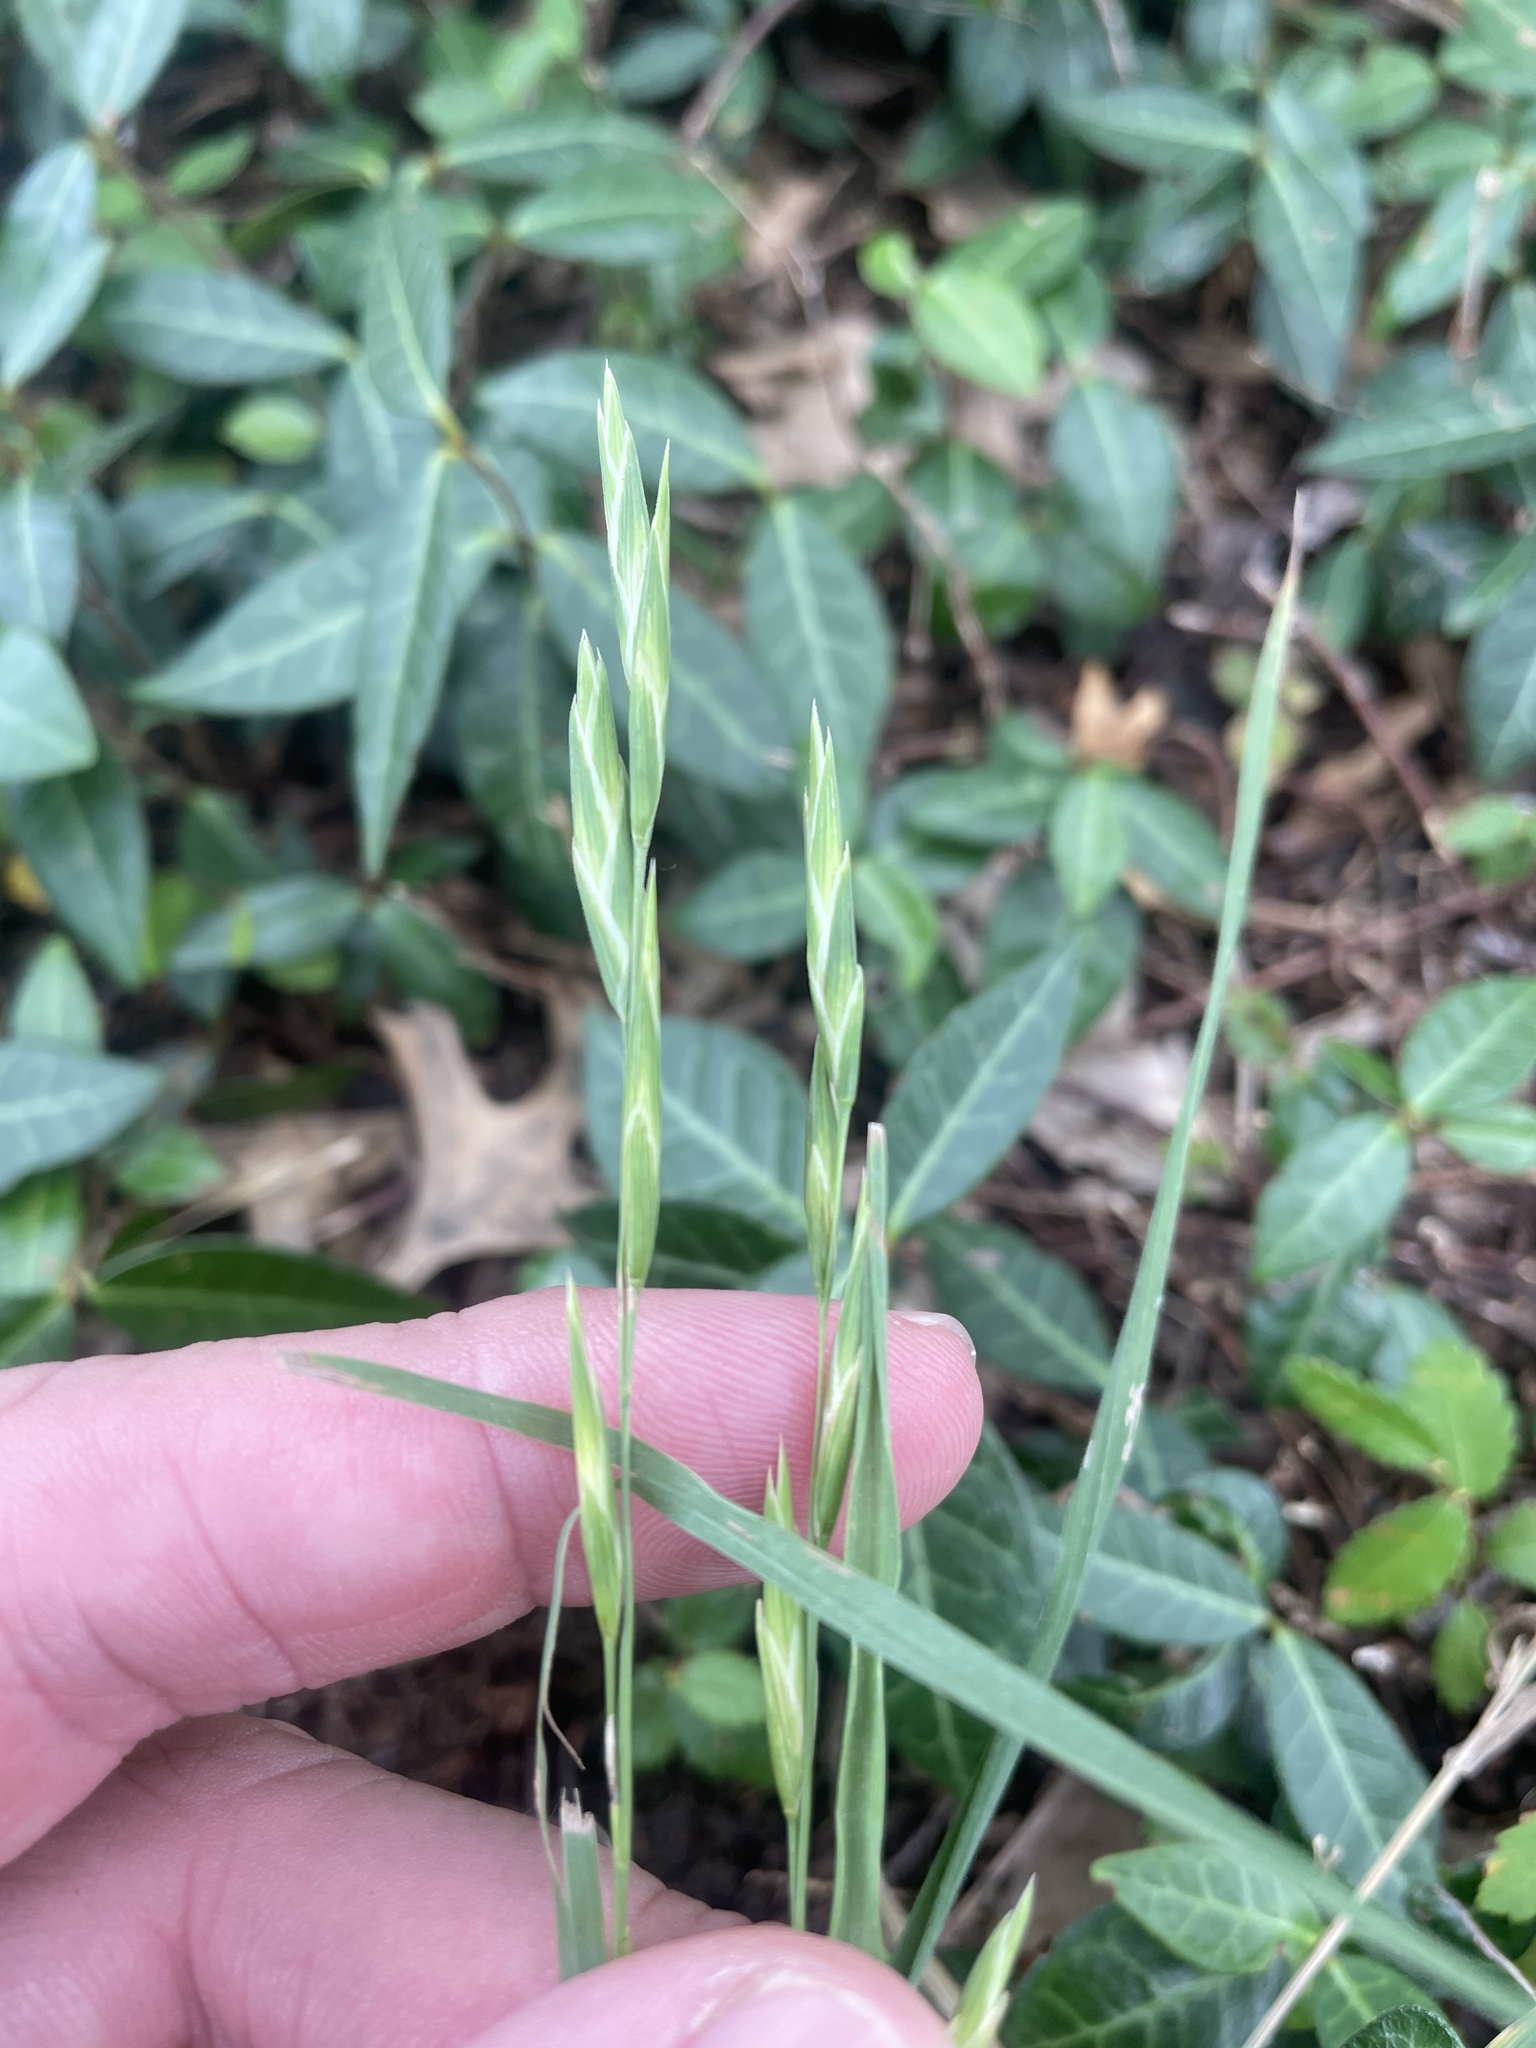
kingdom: Plantae
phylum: Tracheophyta
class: Liliopsida
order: Poales
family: Poaceae
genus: Bromus
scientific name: Bromus catharticus
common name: Rescuegrass
